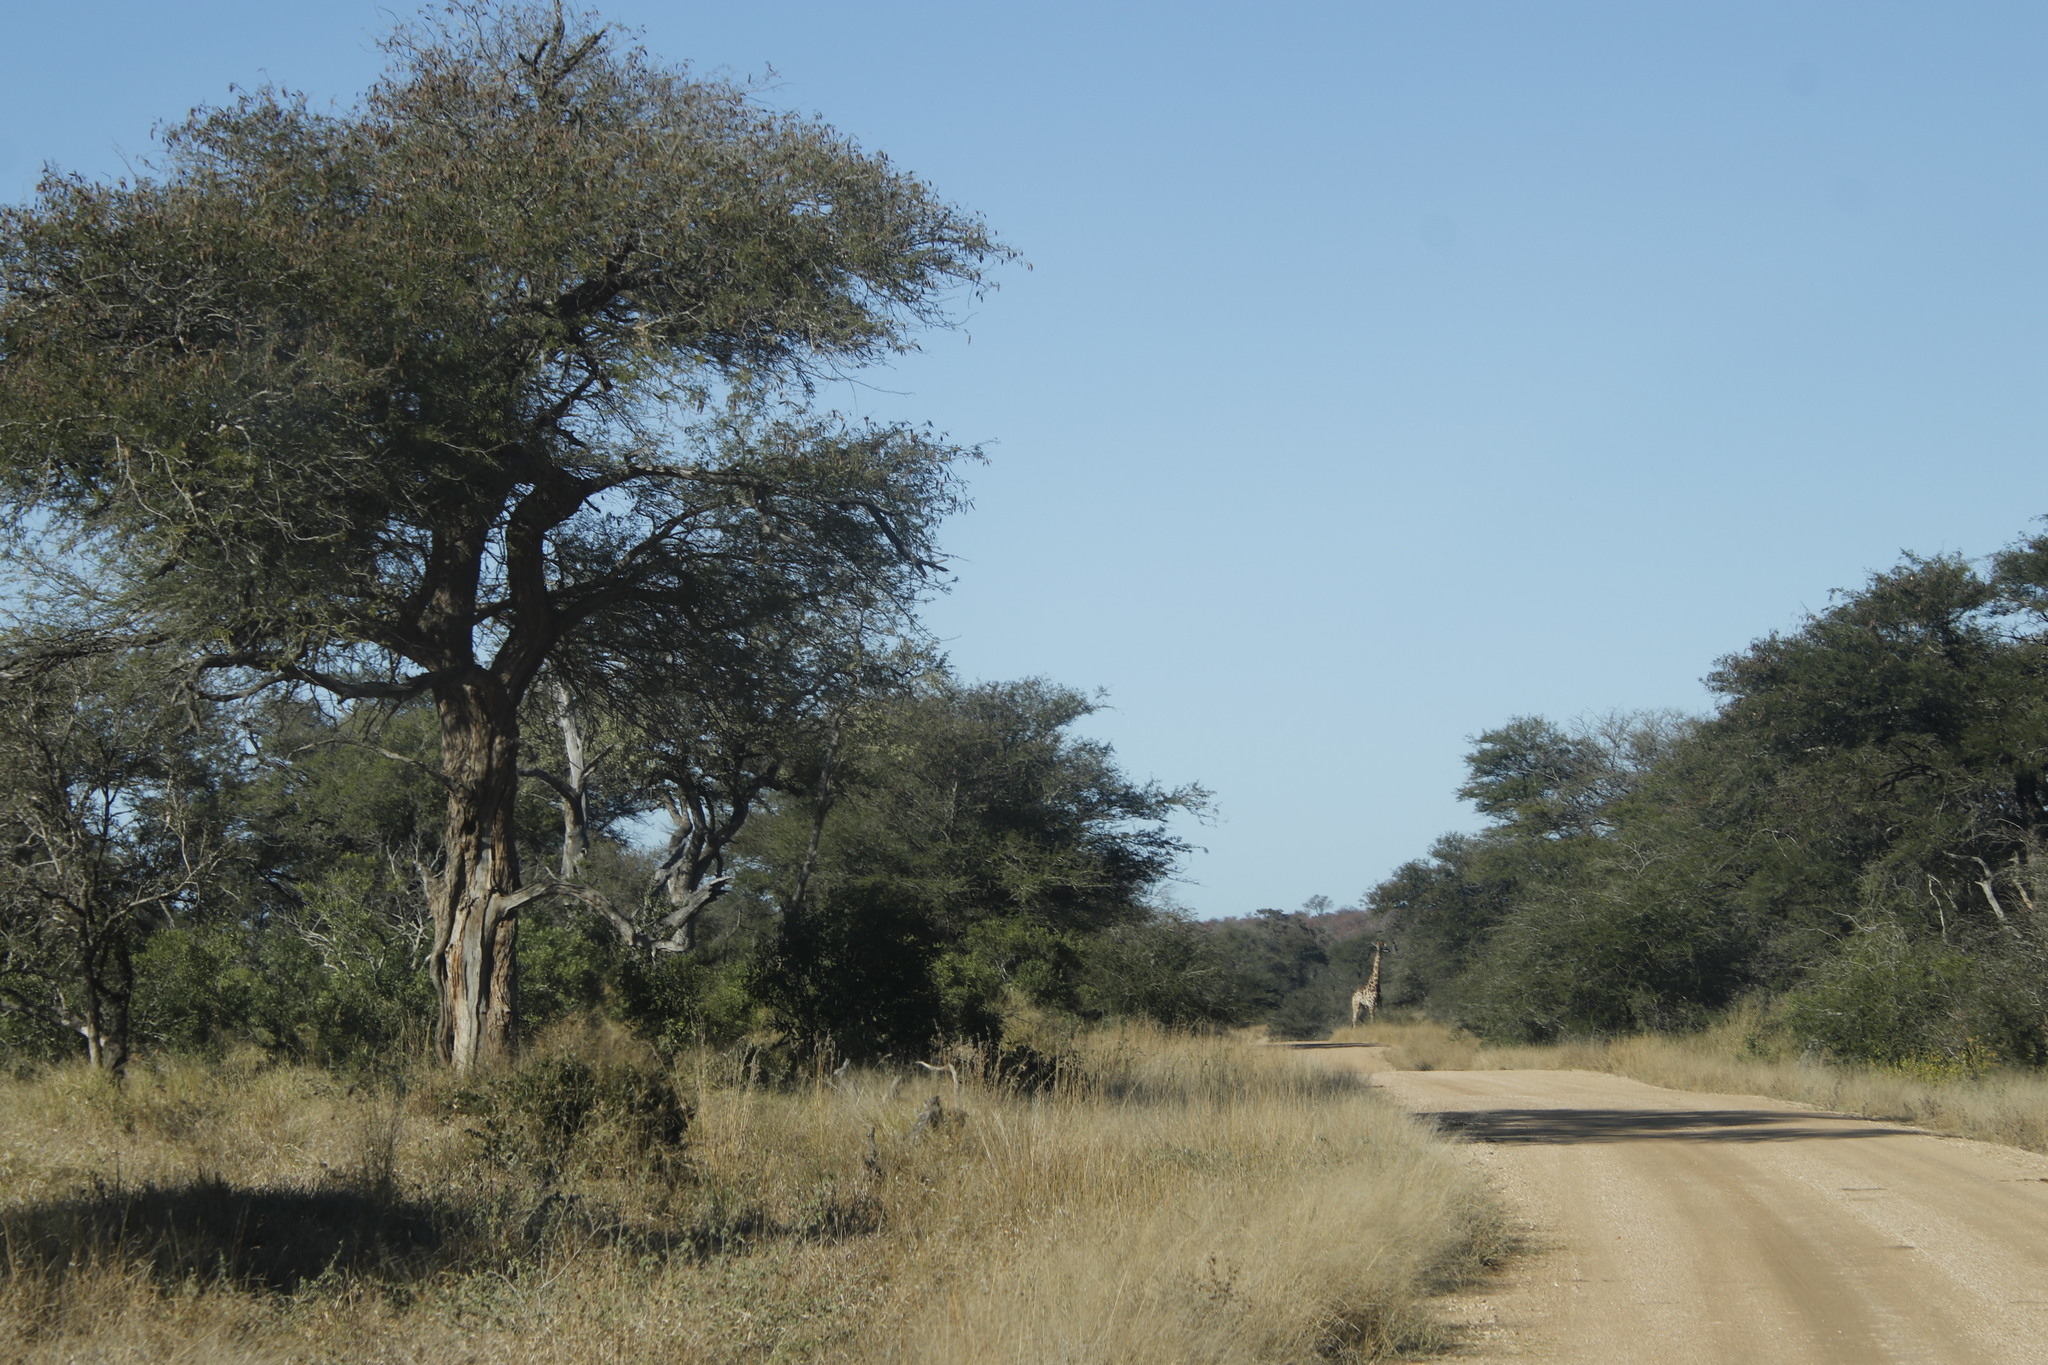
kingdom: Plantae
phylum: Tracheophyta
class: Magnoliopsida
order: Fabales
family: Fabaceae
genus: Senegalia
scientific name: Senegalia nigrescens
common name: Knobthorn
